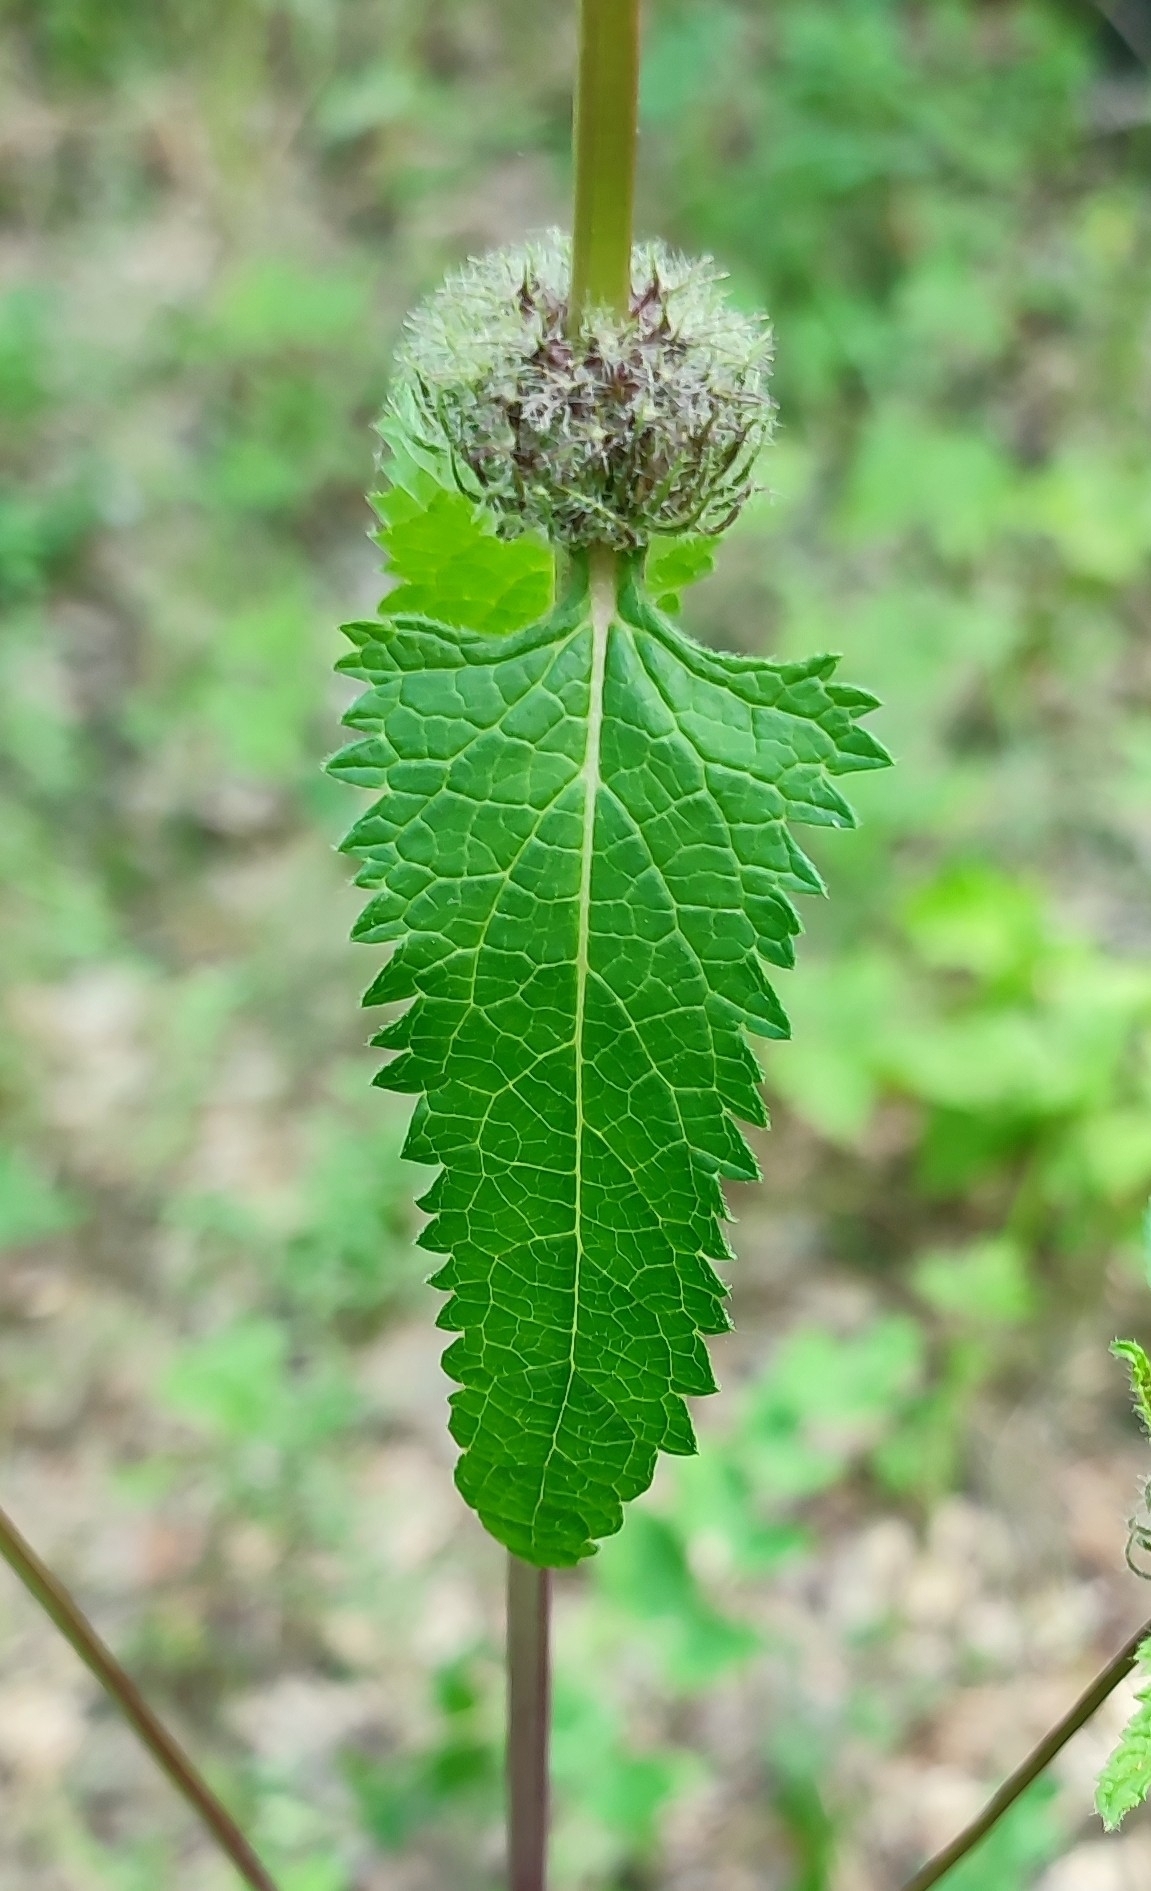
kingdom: Plantae
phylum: Tracheophyta
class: Magnoliopsida
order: Lamiales
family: Lamiaceae
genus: Phlomoides
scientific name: Phlomoides tuberosa
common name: Tuberous jerusalem sage
